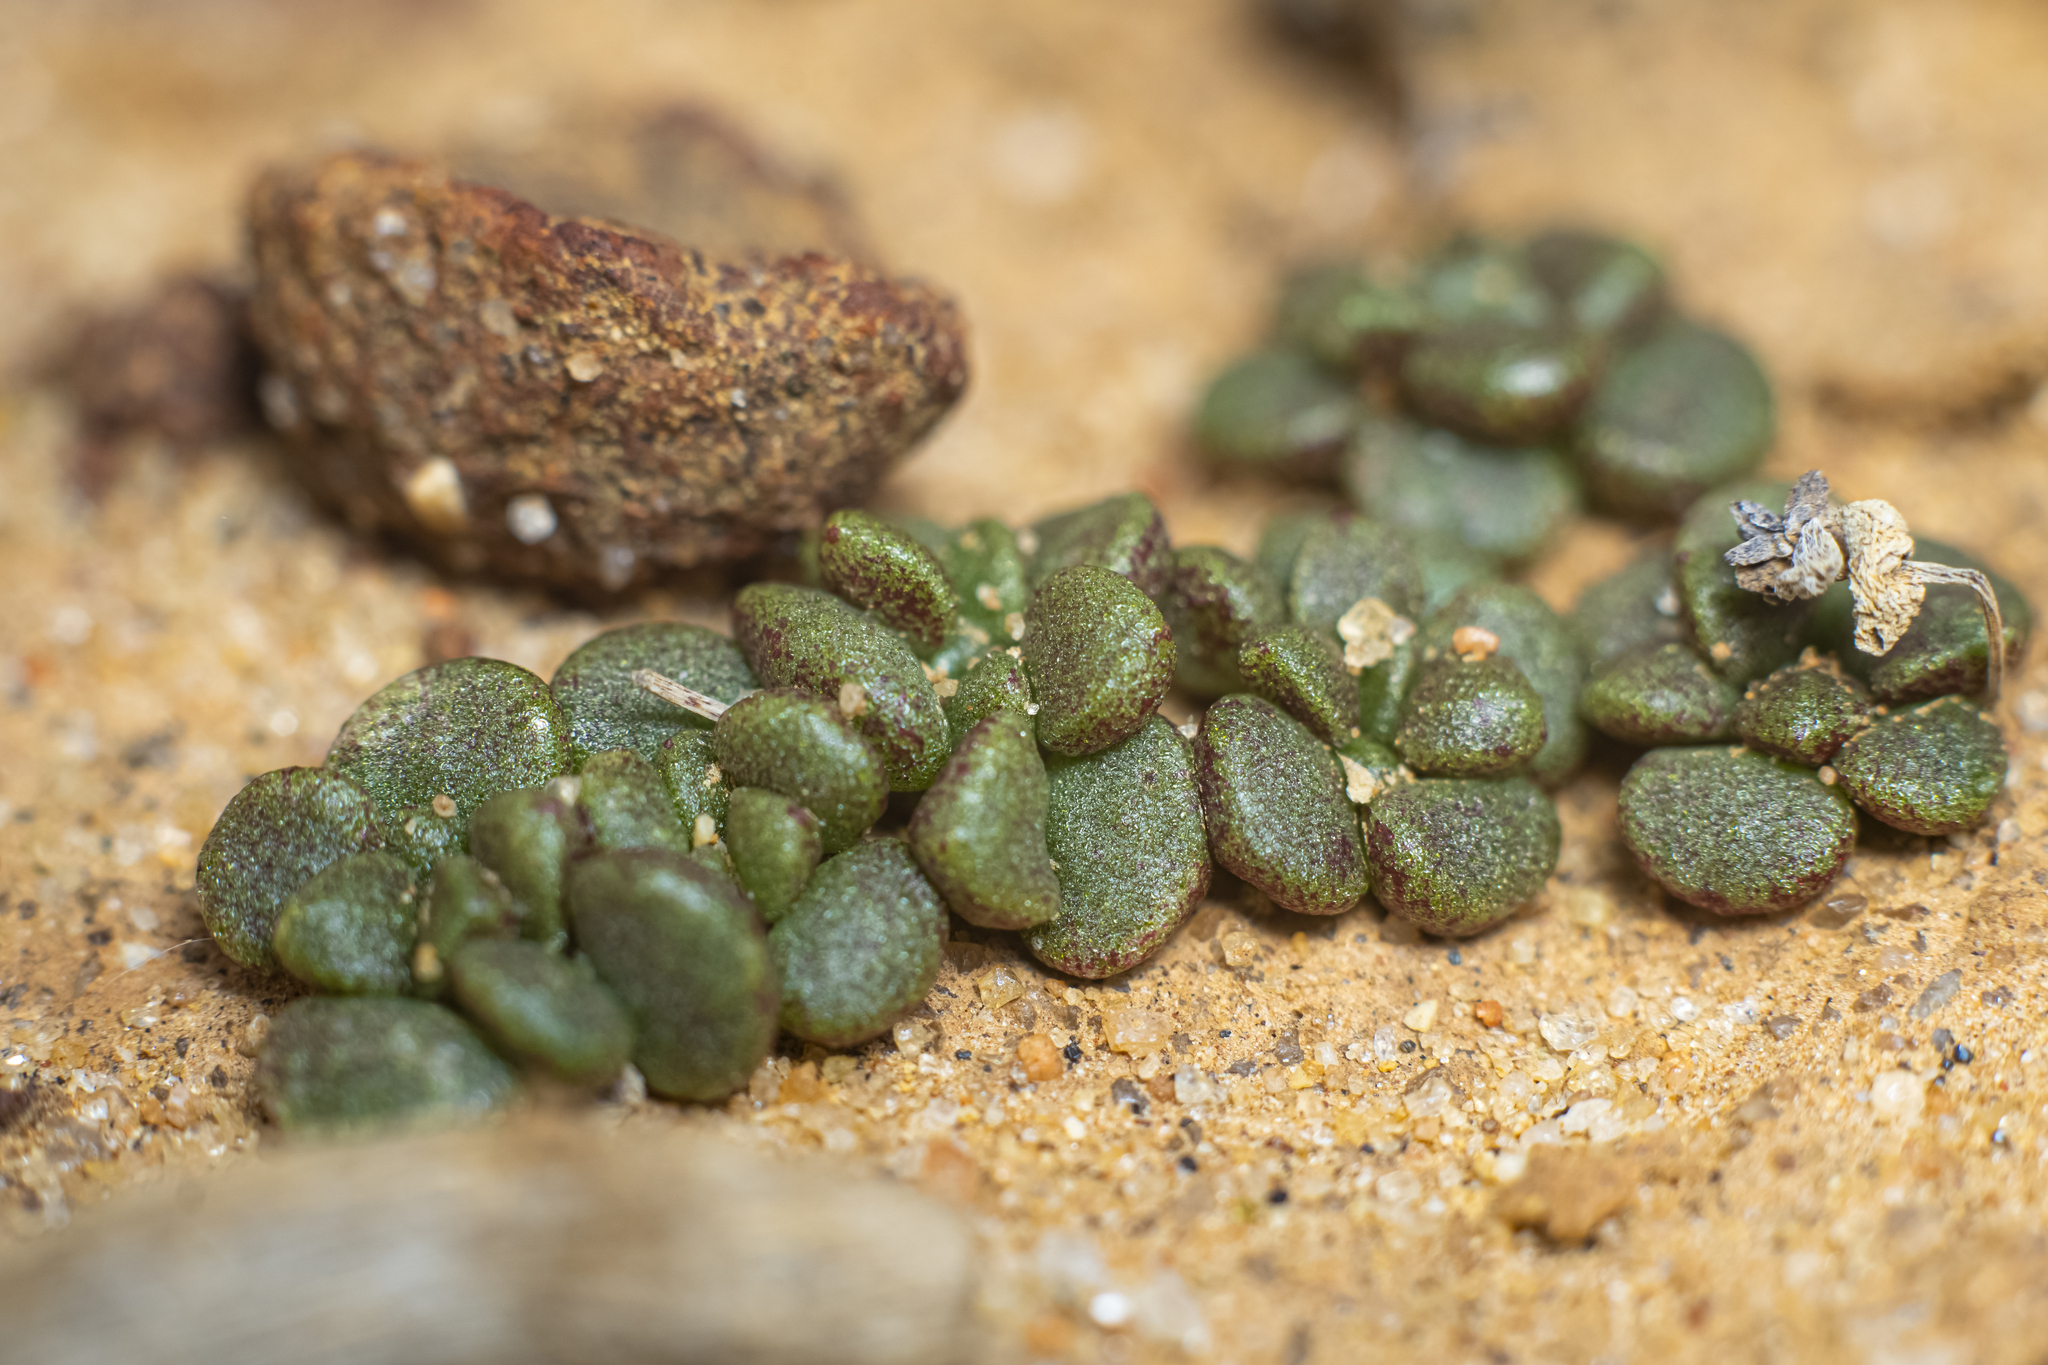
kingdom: Plantae
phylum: Tracheophyta
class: Magnoliopsida
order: Saxifragales
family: Crassulaceae
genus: Dudleya
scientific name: Dudleya blochmaniae
